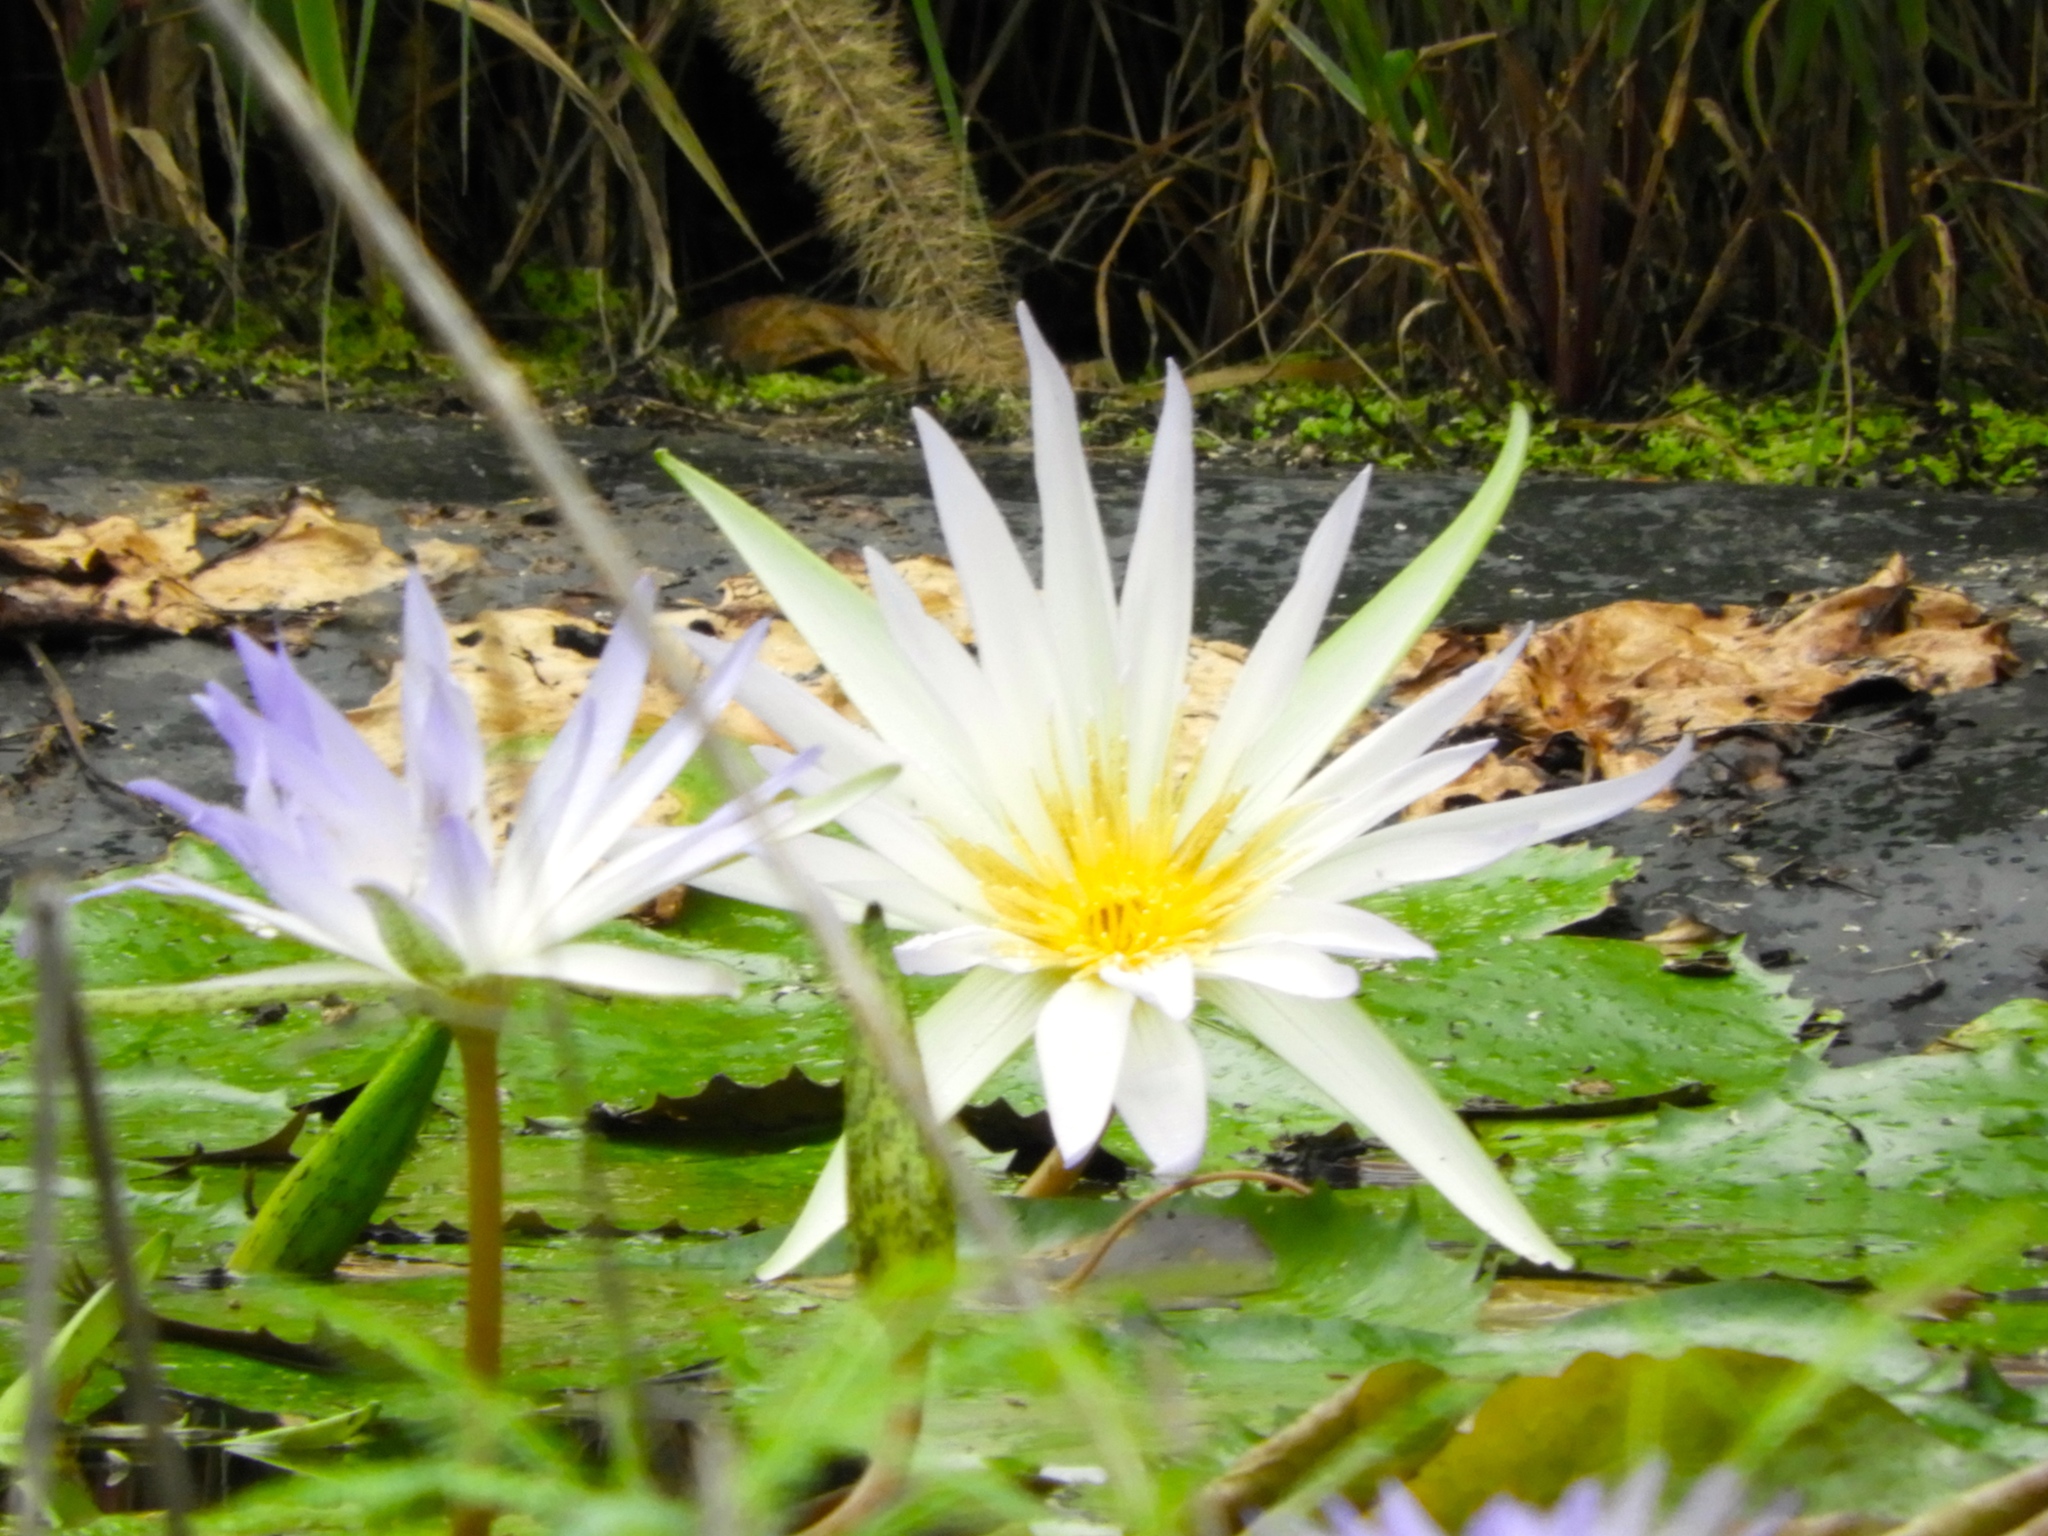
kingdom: Plantae
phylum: Tracheophyta
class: Magnoliopsida
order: Nymphaeales
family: Nymphaeaceae
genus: Nymphaea
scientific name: Nymphaea elegans
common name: Blue water-lily
